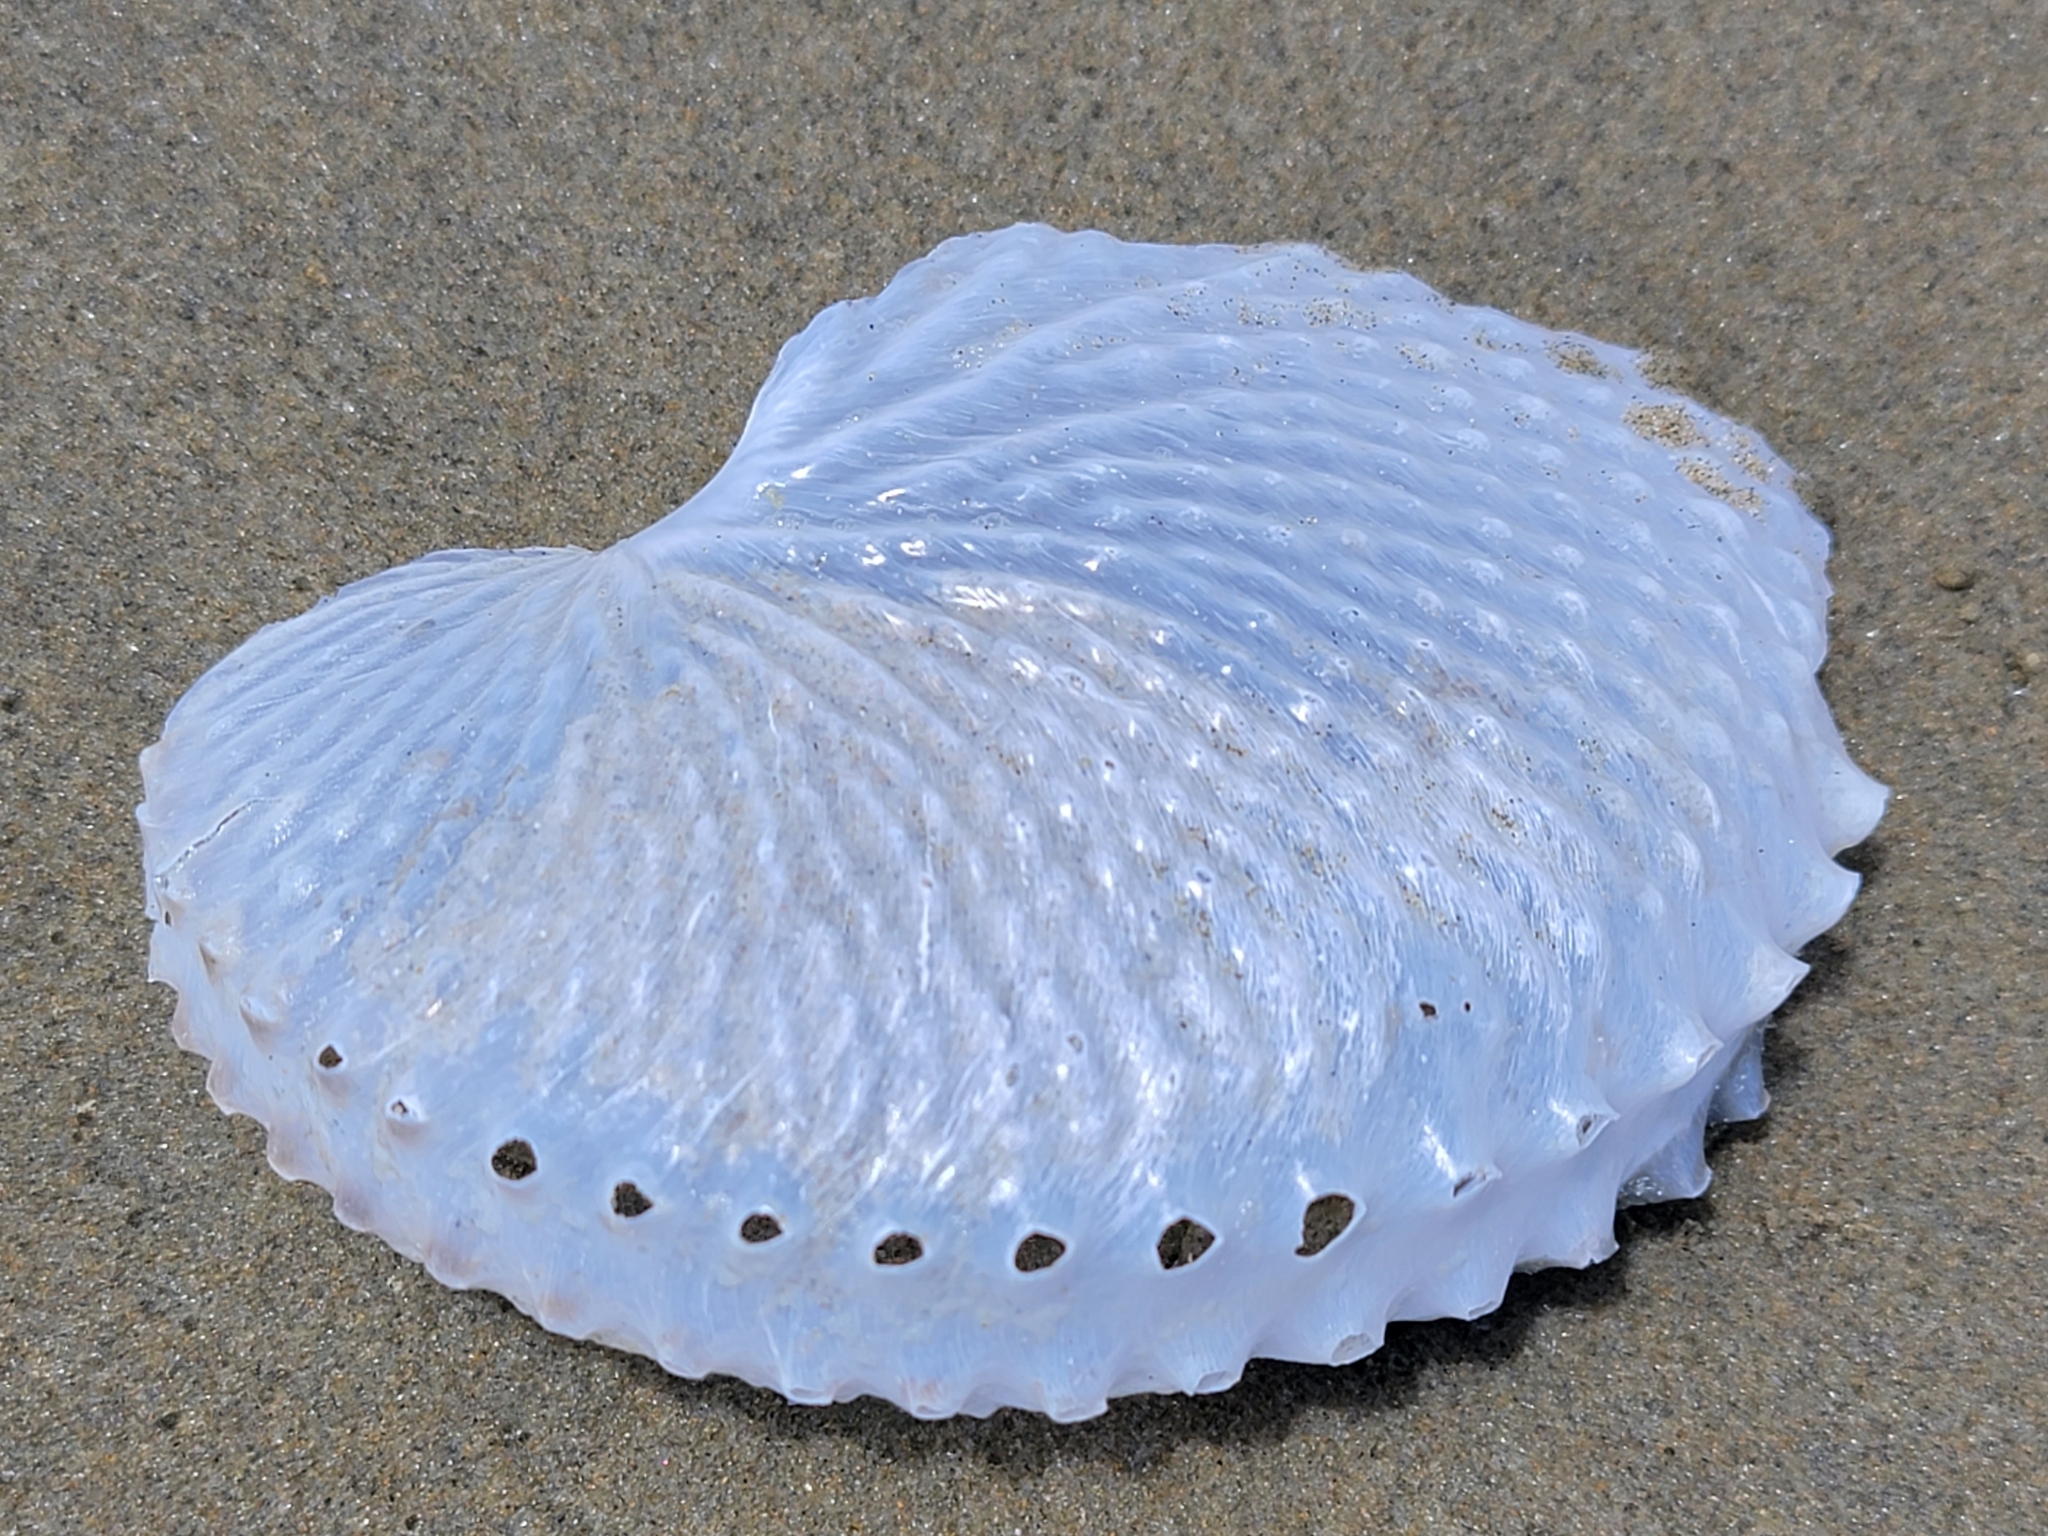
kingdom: Animalia
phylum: Mollusca
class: Cephalopoda
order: Octopoda
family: Argonautidae
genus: Argonauta
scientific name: Argonauta nodosus
